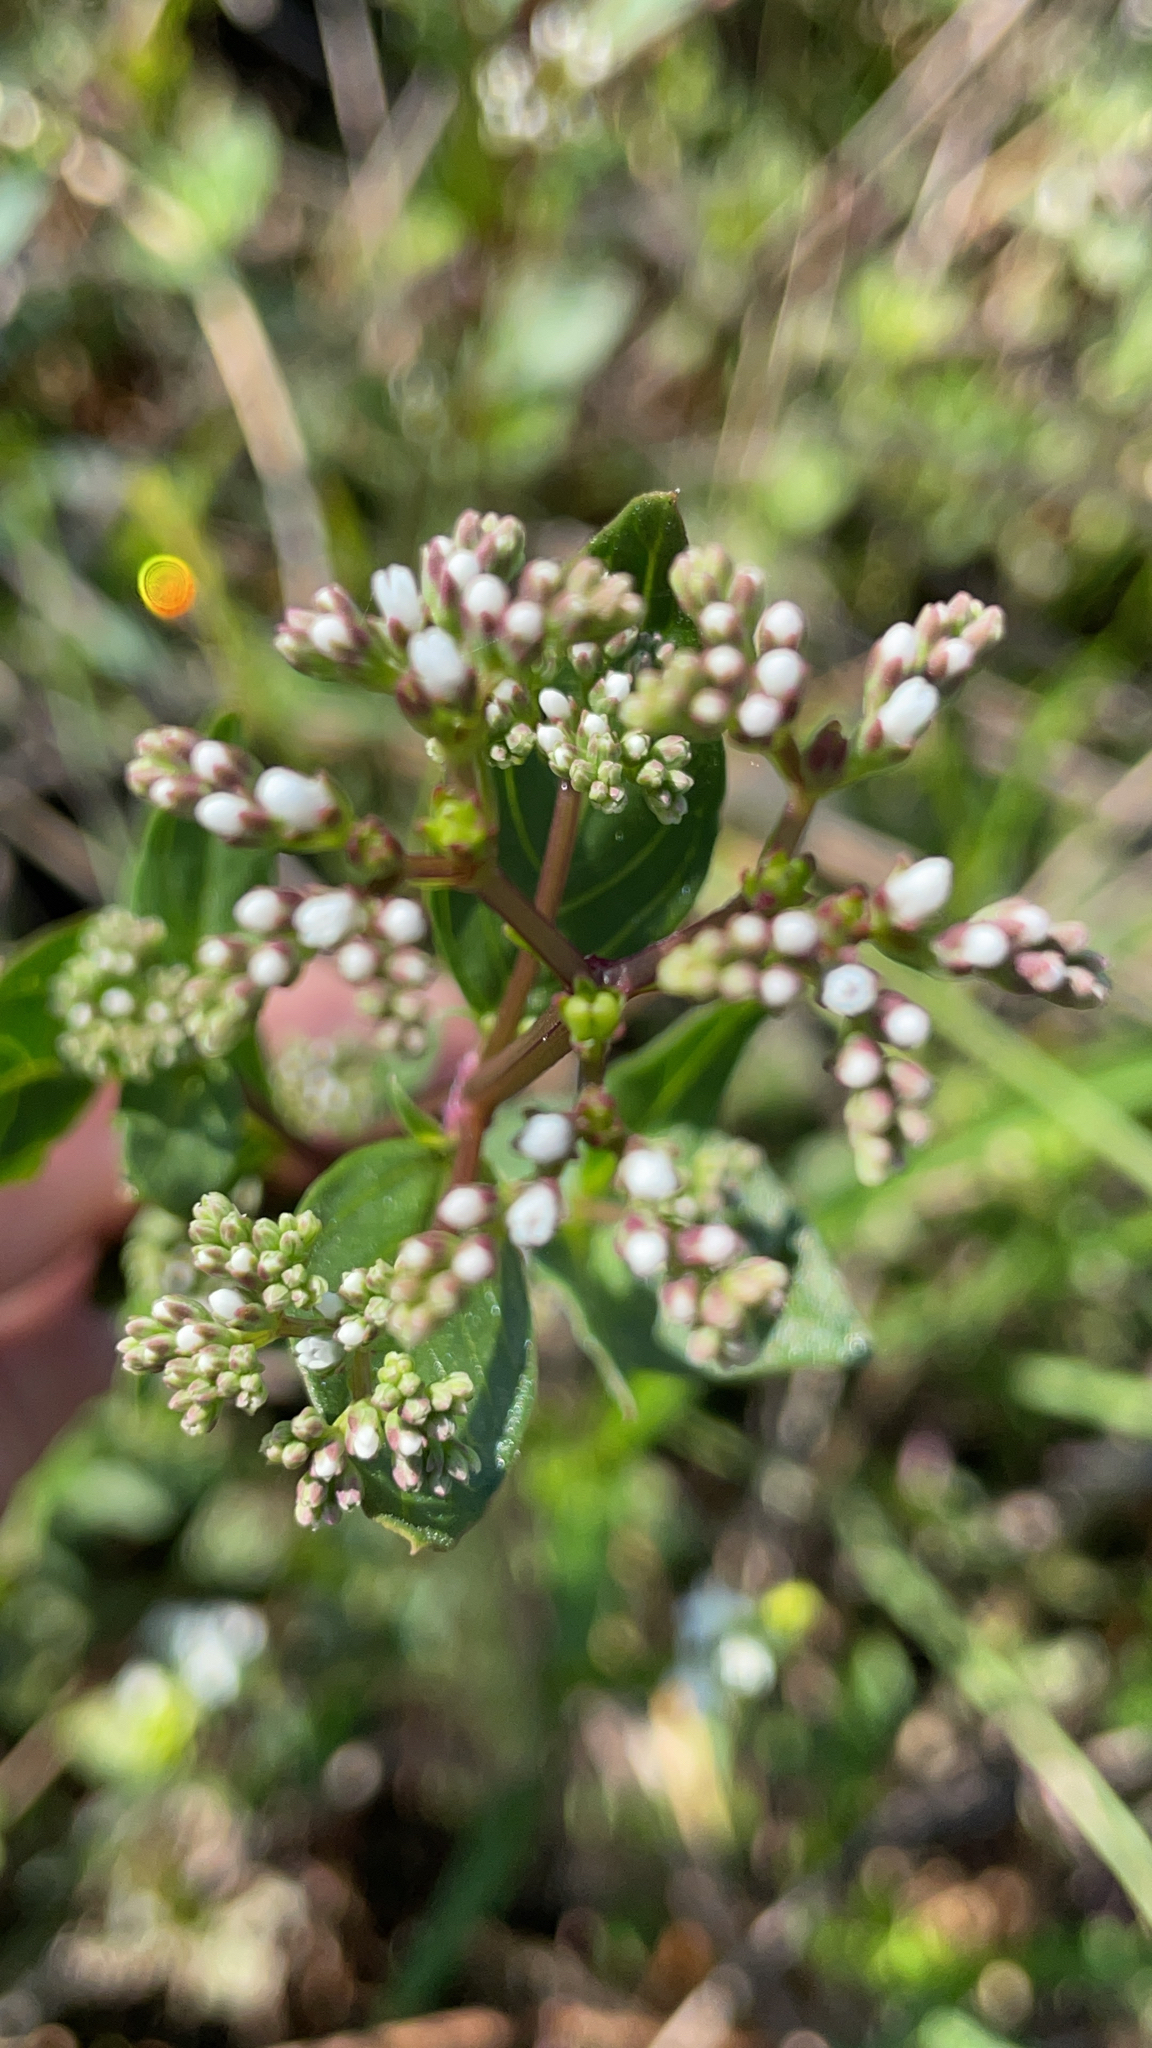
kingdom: Plantae
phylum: Tracheophyta
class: Magnoliopsida
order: Gentianales
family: Loganiaceae
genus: Mitreola
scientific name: Mitreola petiolata
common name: Lax hornpod
